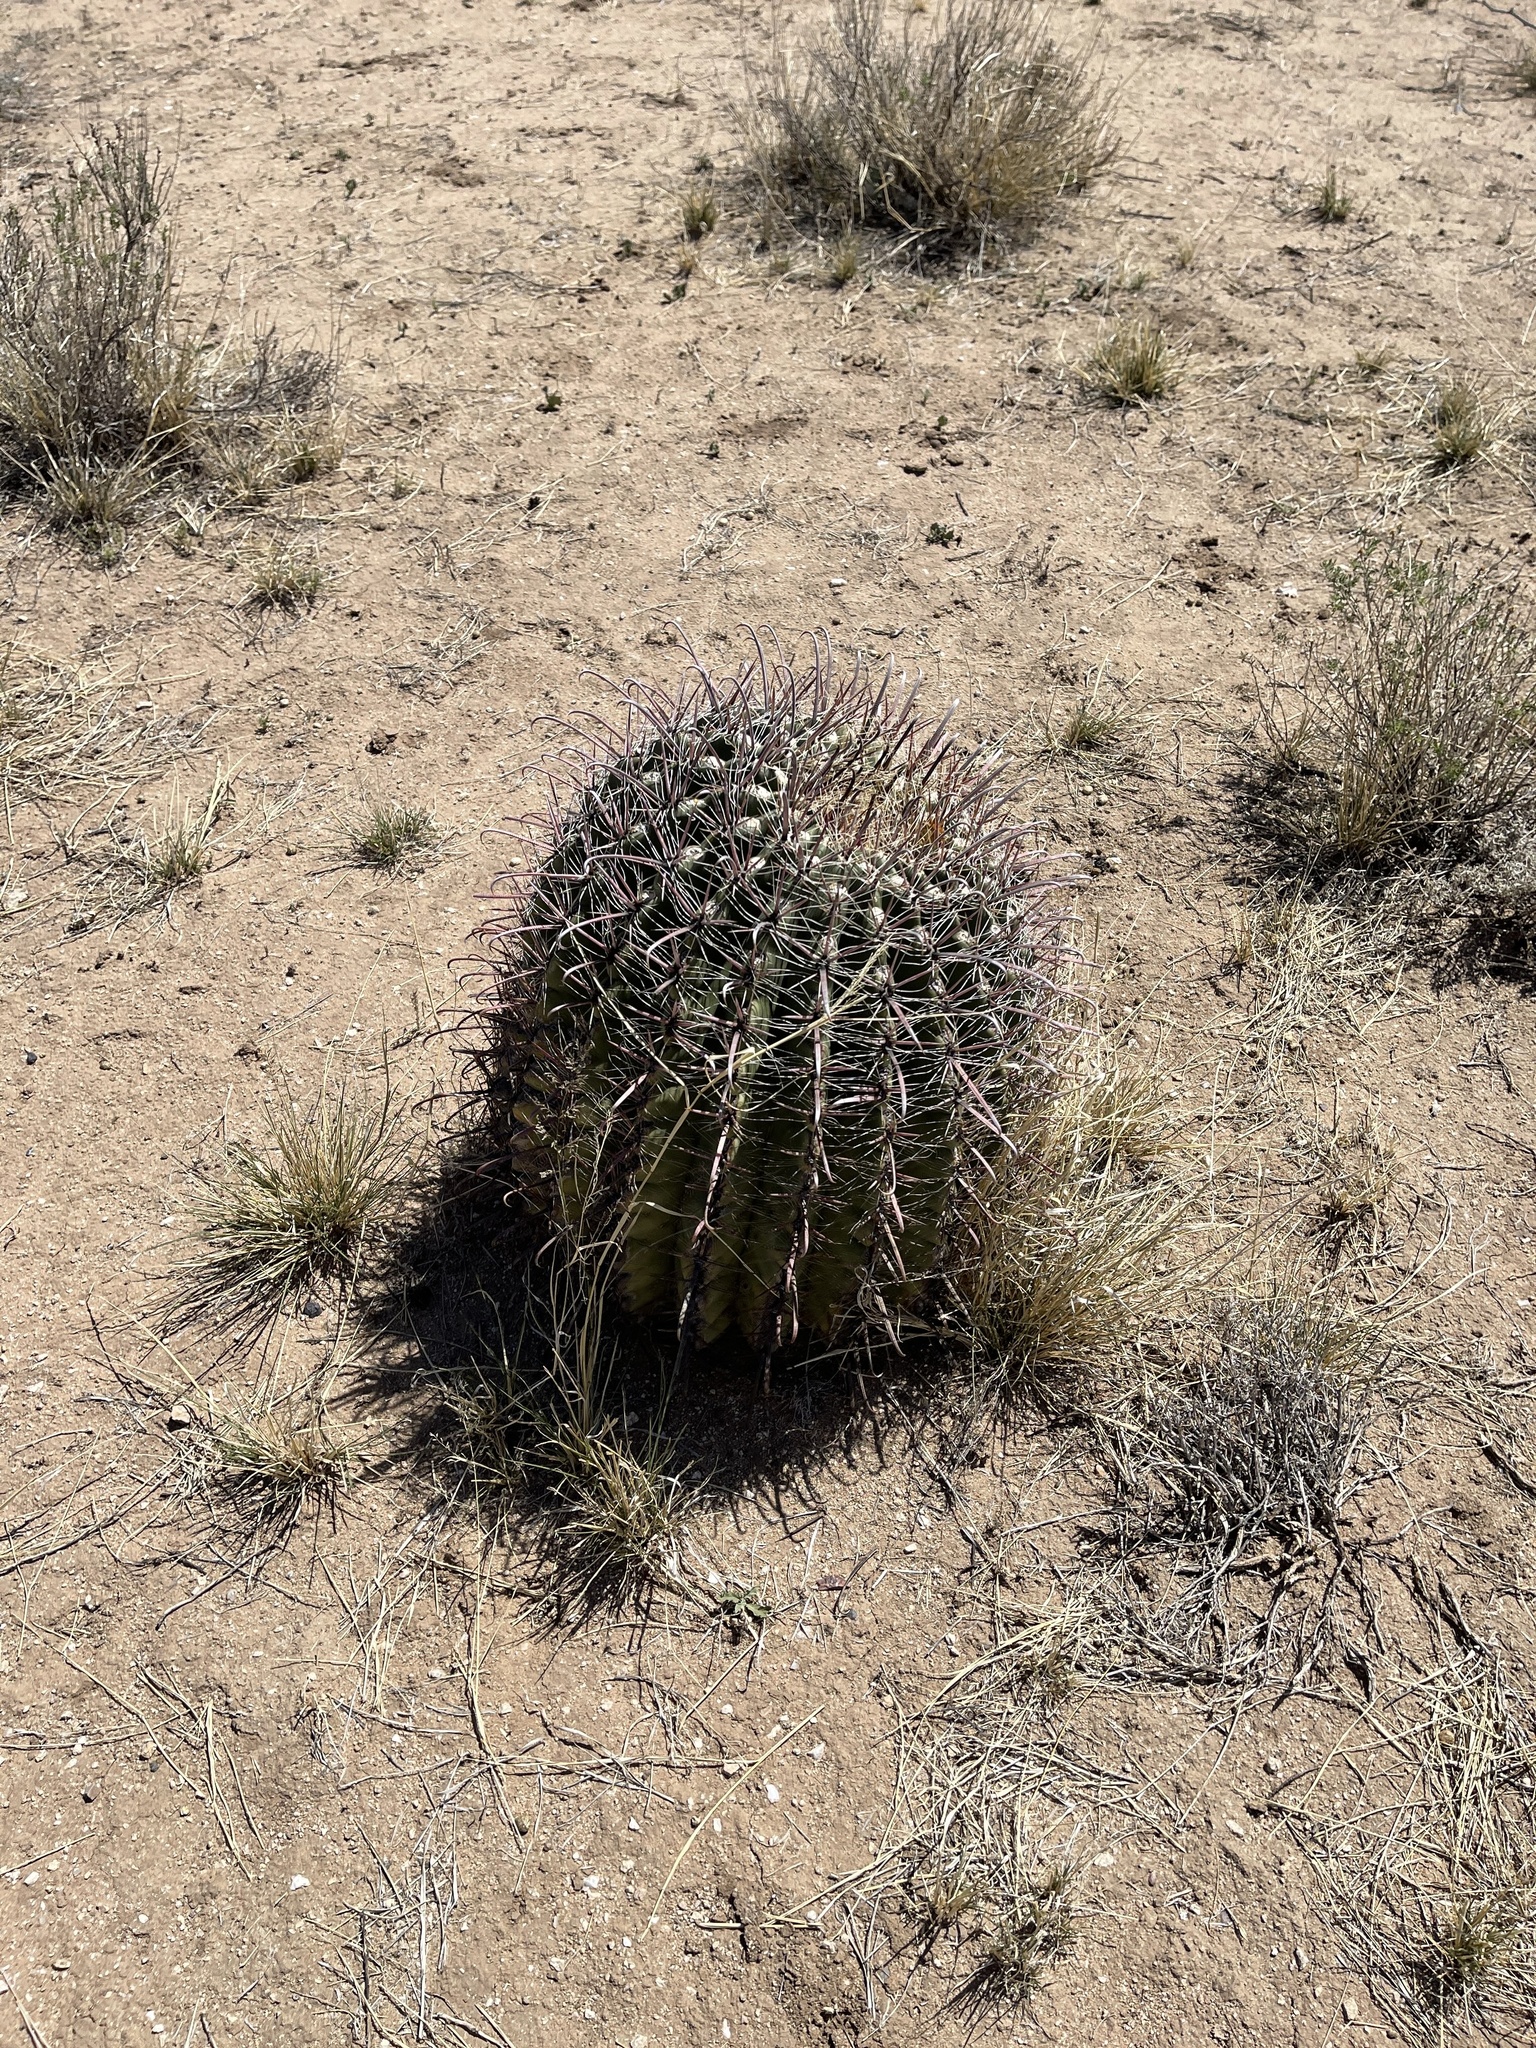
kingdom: Plantae
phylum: Tracheophyta
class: Magnoliopsida
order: Caryophyllales
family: Cactaceae
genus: Ferocactus
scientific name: Ferocactus wislizeni
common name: Candy barrel cactus
